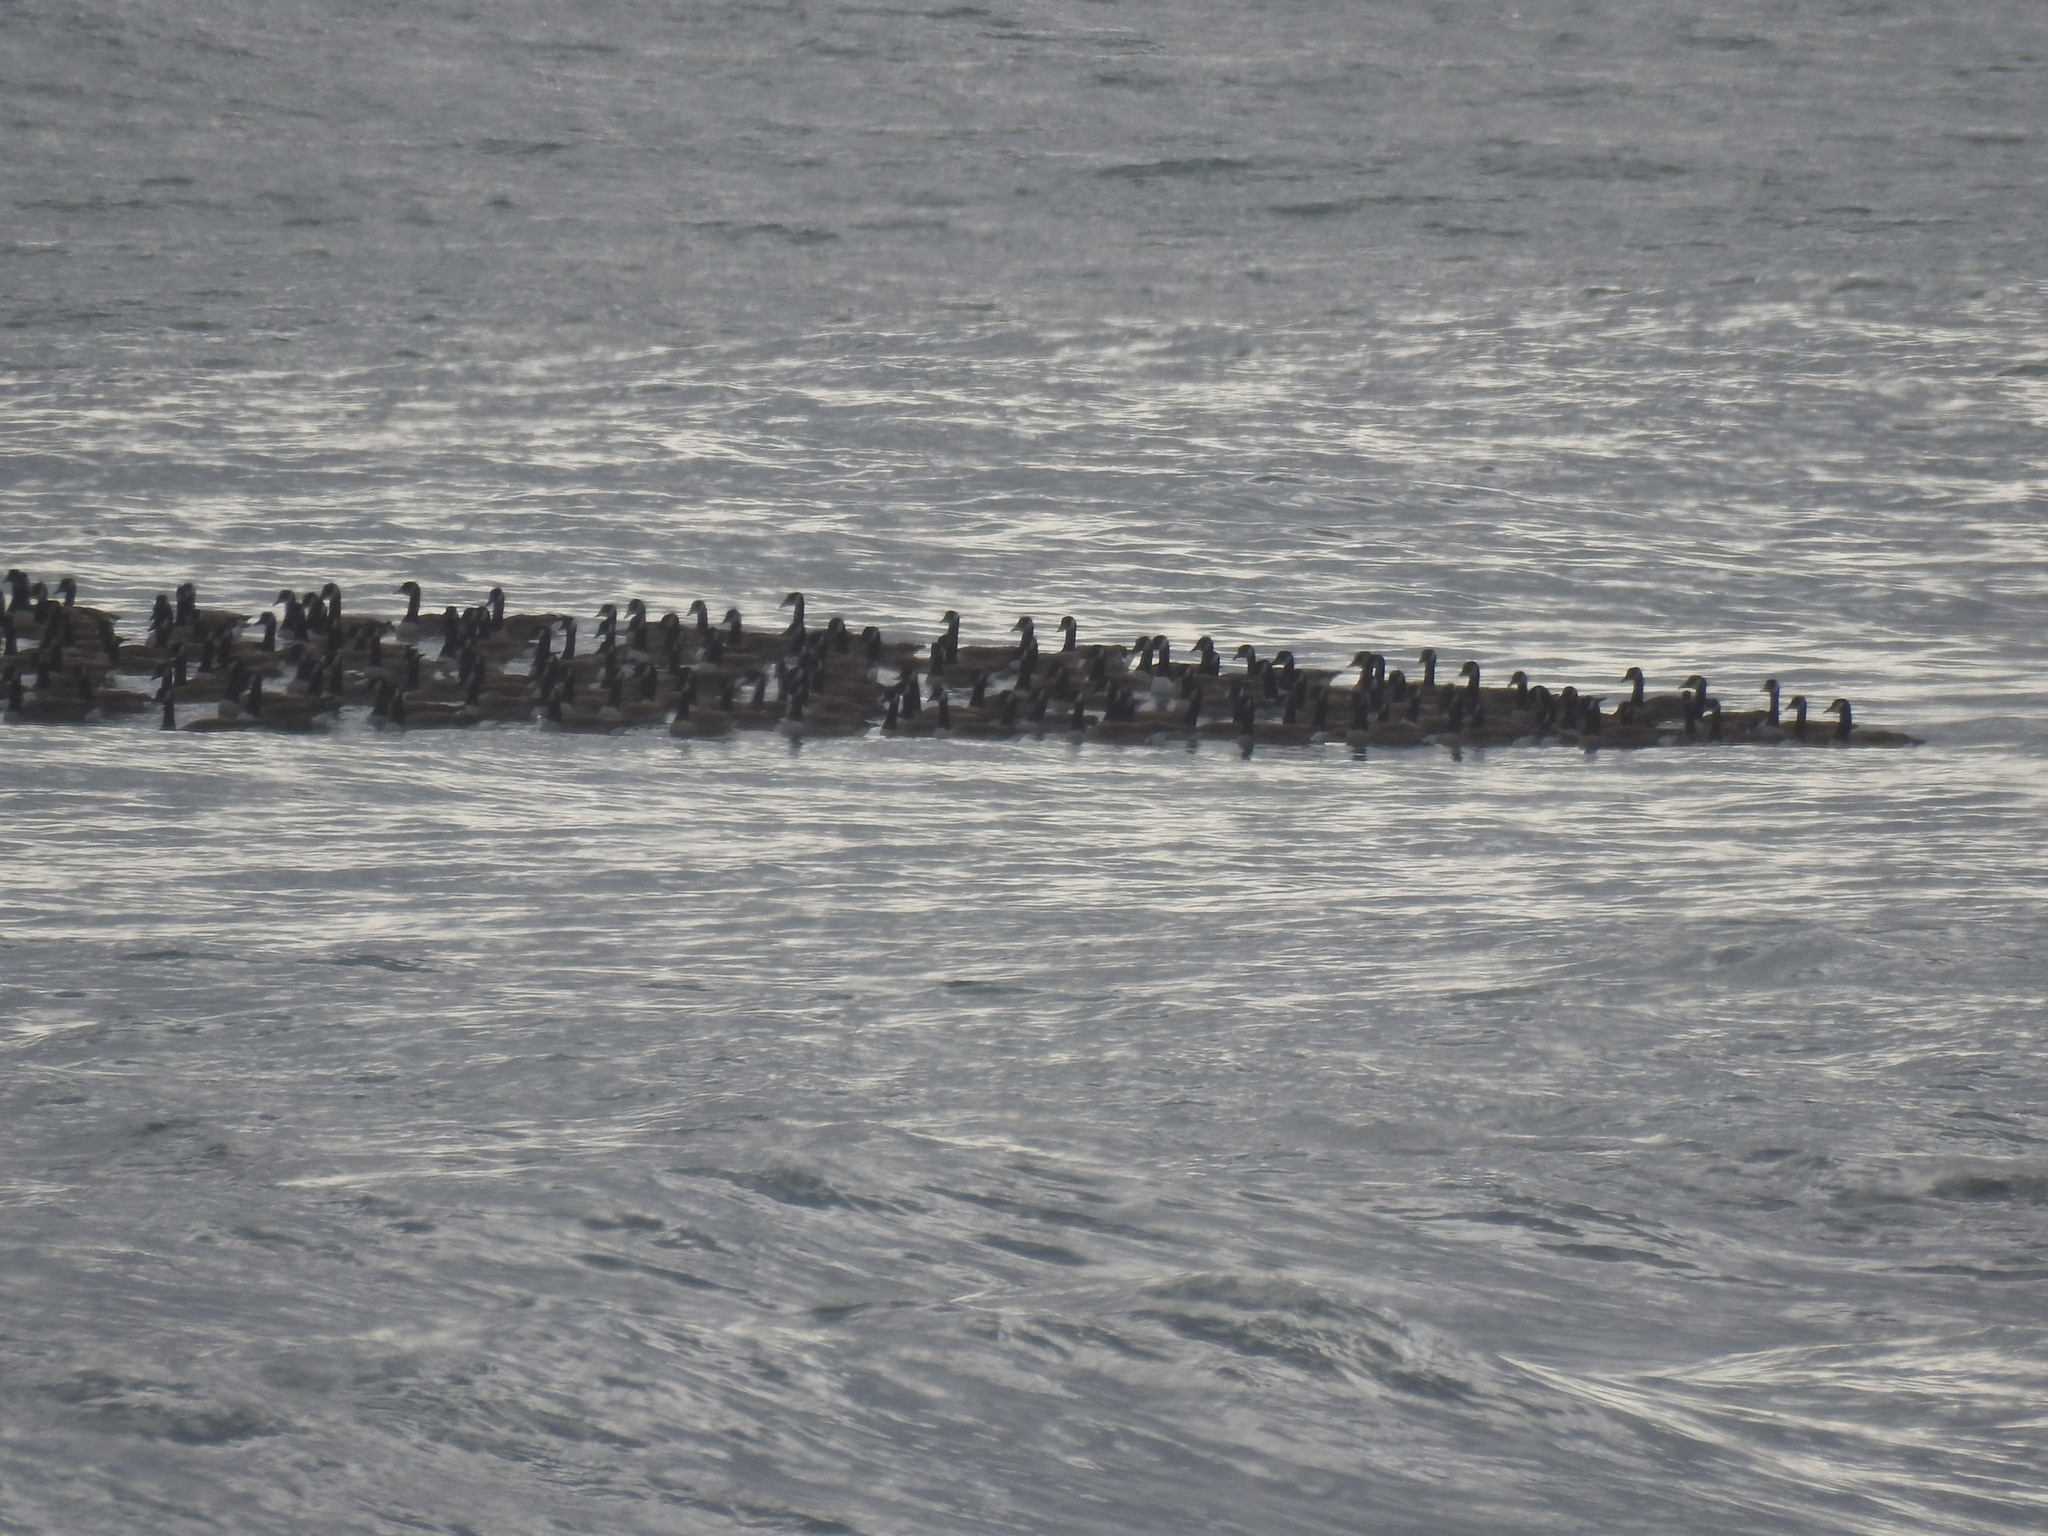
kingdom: Animalia
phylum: Chordata
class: Aves
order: Anseriformes
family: Anatidae
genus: Branta
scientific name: Branta canadensis
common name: Canada goose
